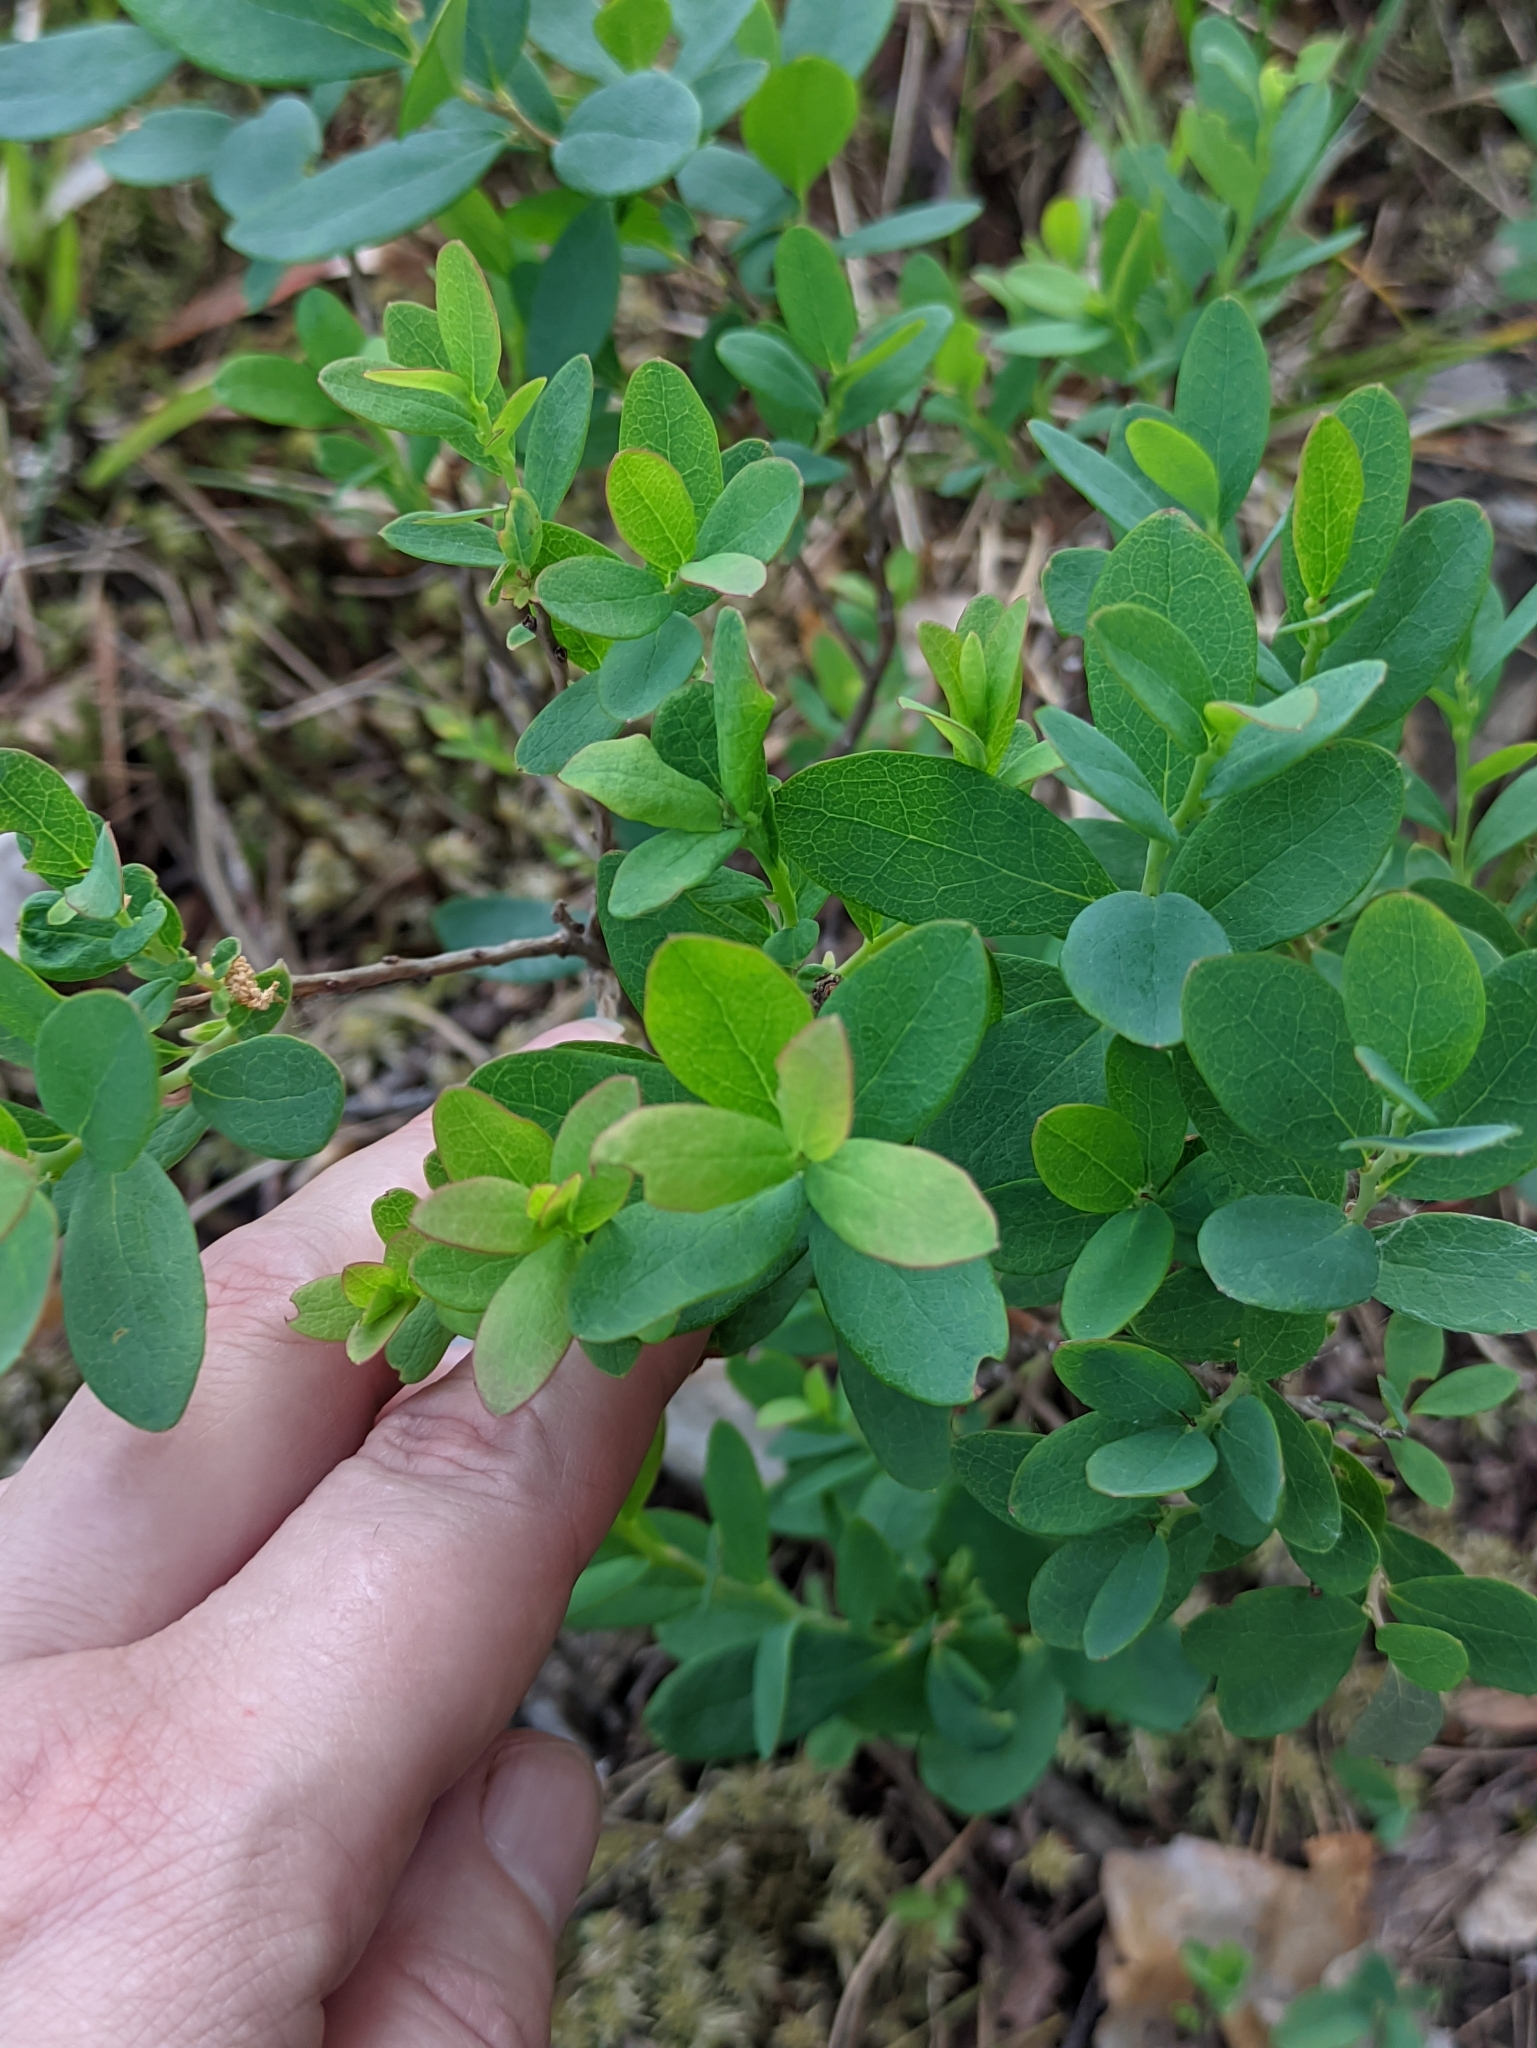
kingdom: Plantae
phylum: Tracheophyta
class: Magnoliopsida
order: Ericales
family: Ericaceae
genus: Vaccinium
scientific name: Vaccinium uliginosum
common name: Bog bilberry
